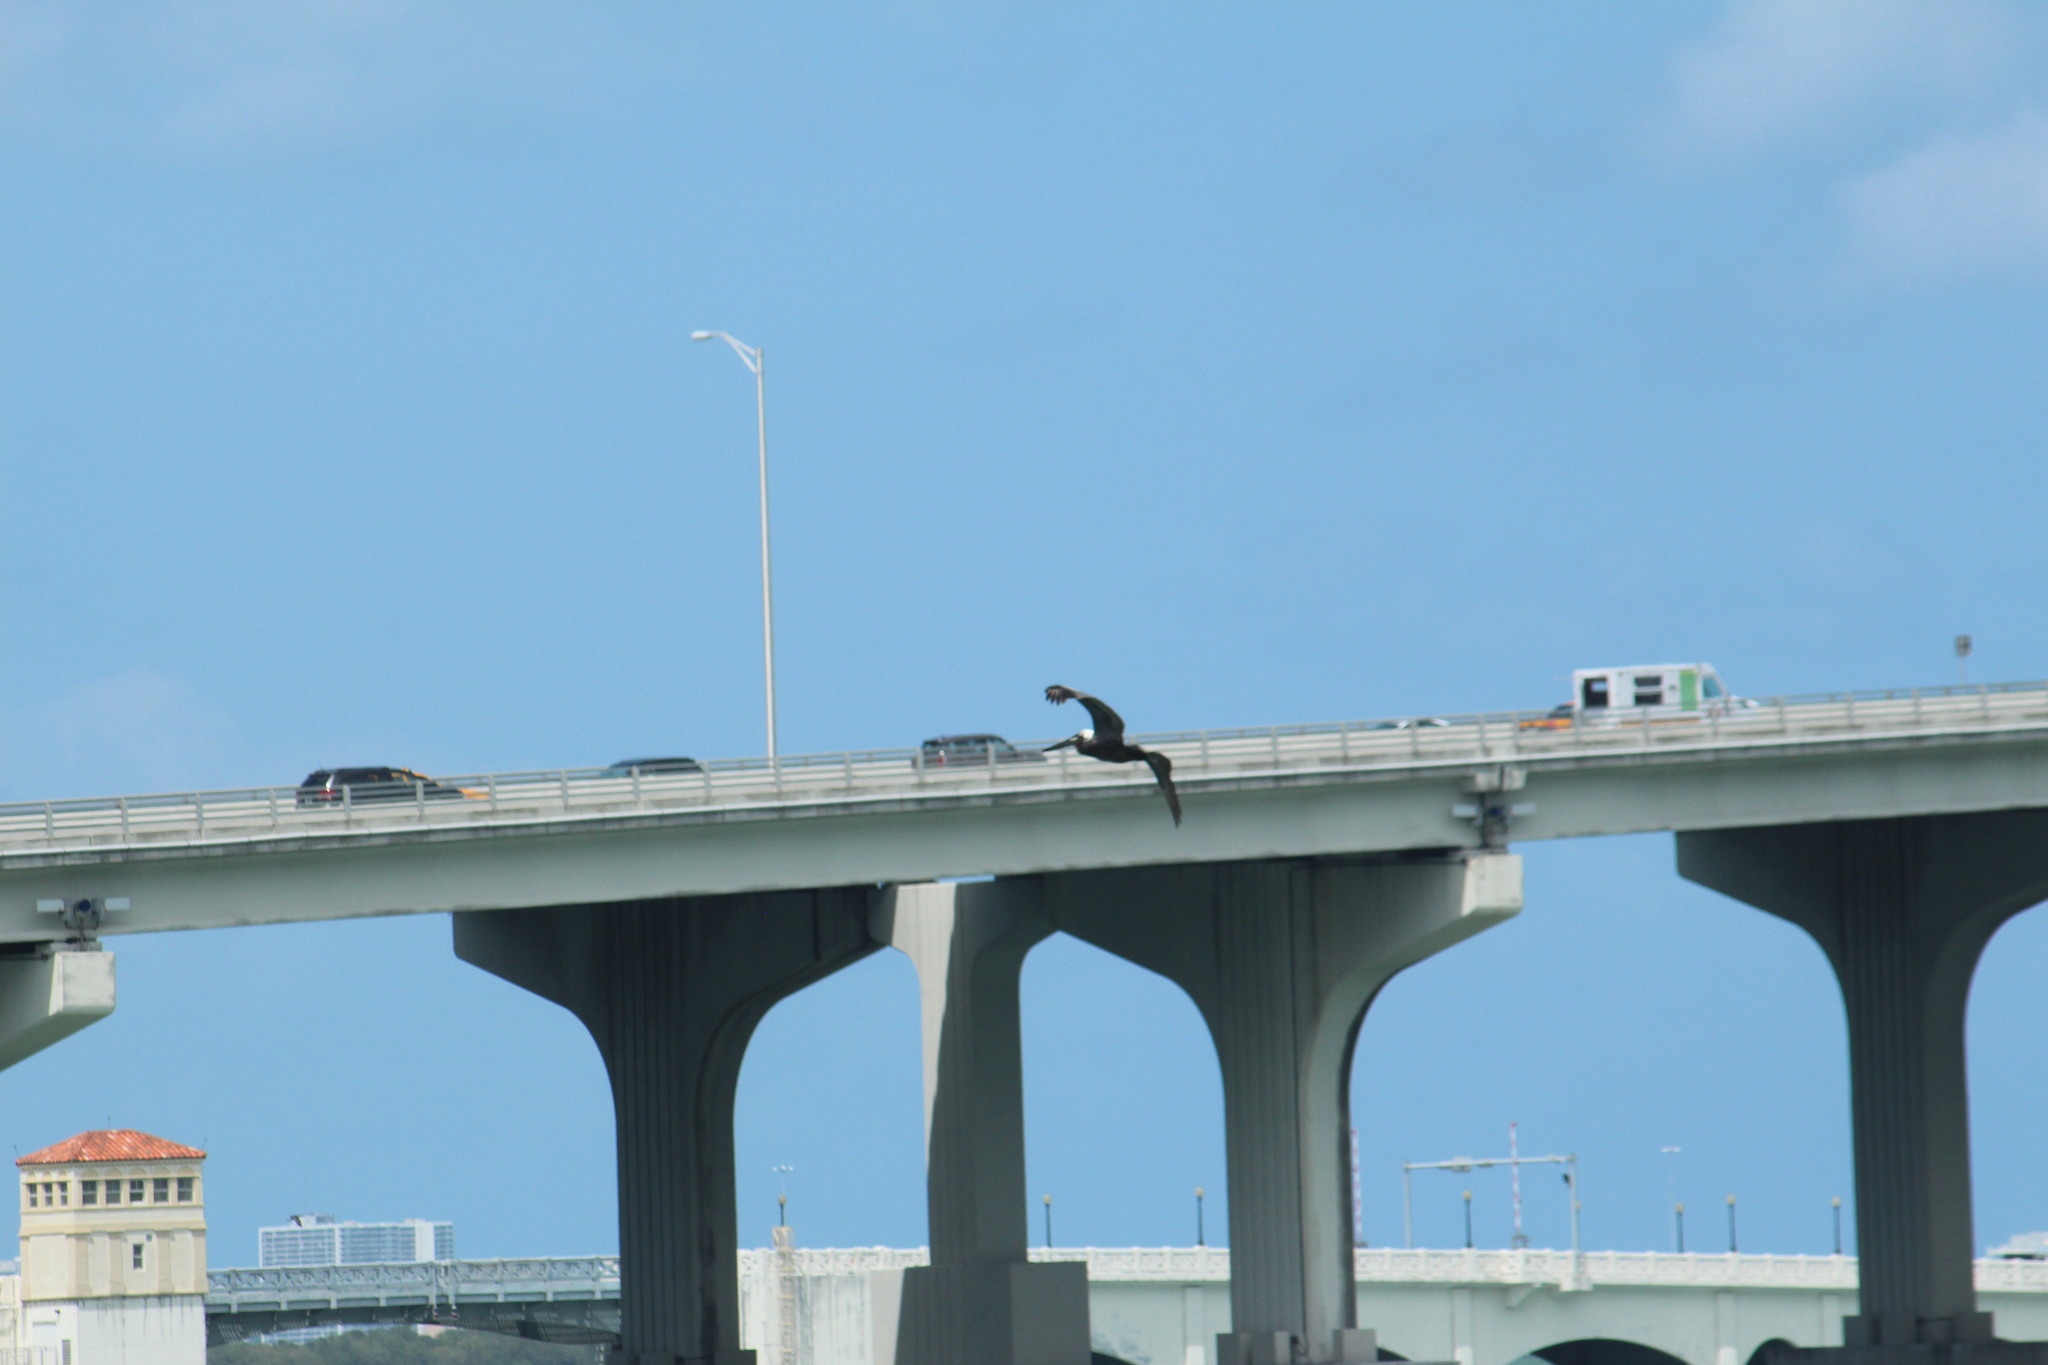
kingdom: Animalia
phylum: Chordata
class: Aves
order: Pelecaniformes
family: Pelecanidae
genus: Pelecanus
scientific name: Pelecanus occidentalis
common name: Brown pelican
